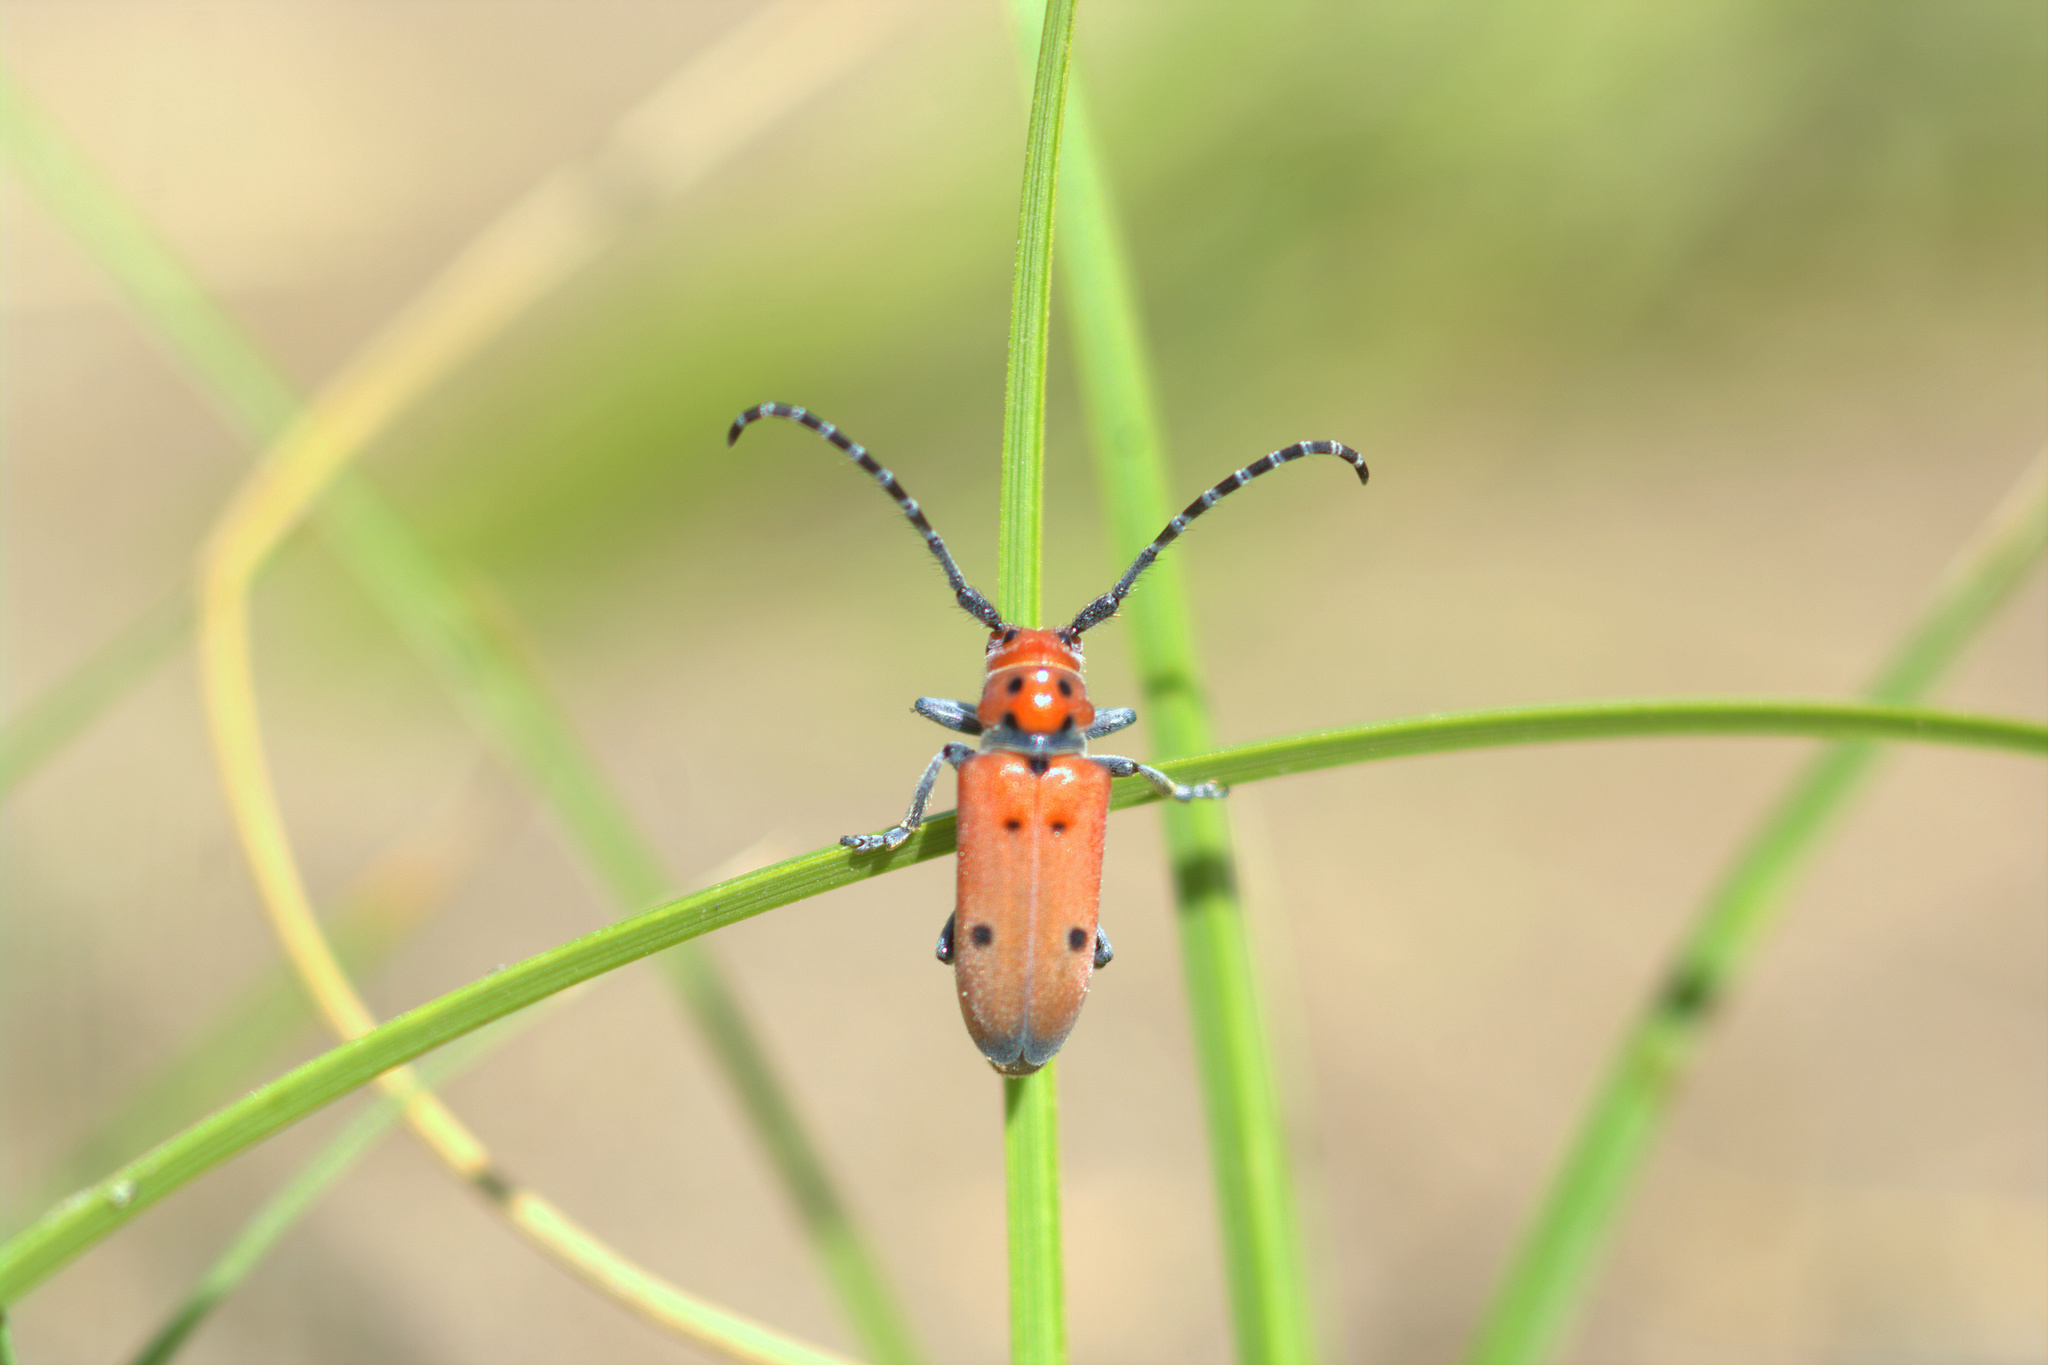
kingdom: Animalia
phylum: Arthropoda
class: Insecta
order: Coleoptera
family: Cerambycidae
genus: Tetraopes
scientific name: Tetraopes annulatus
